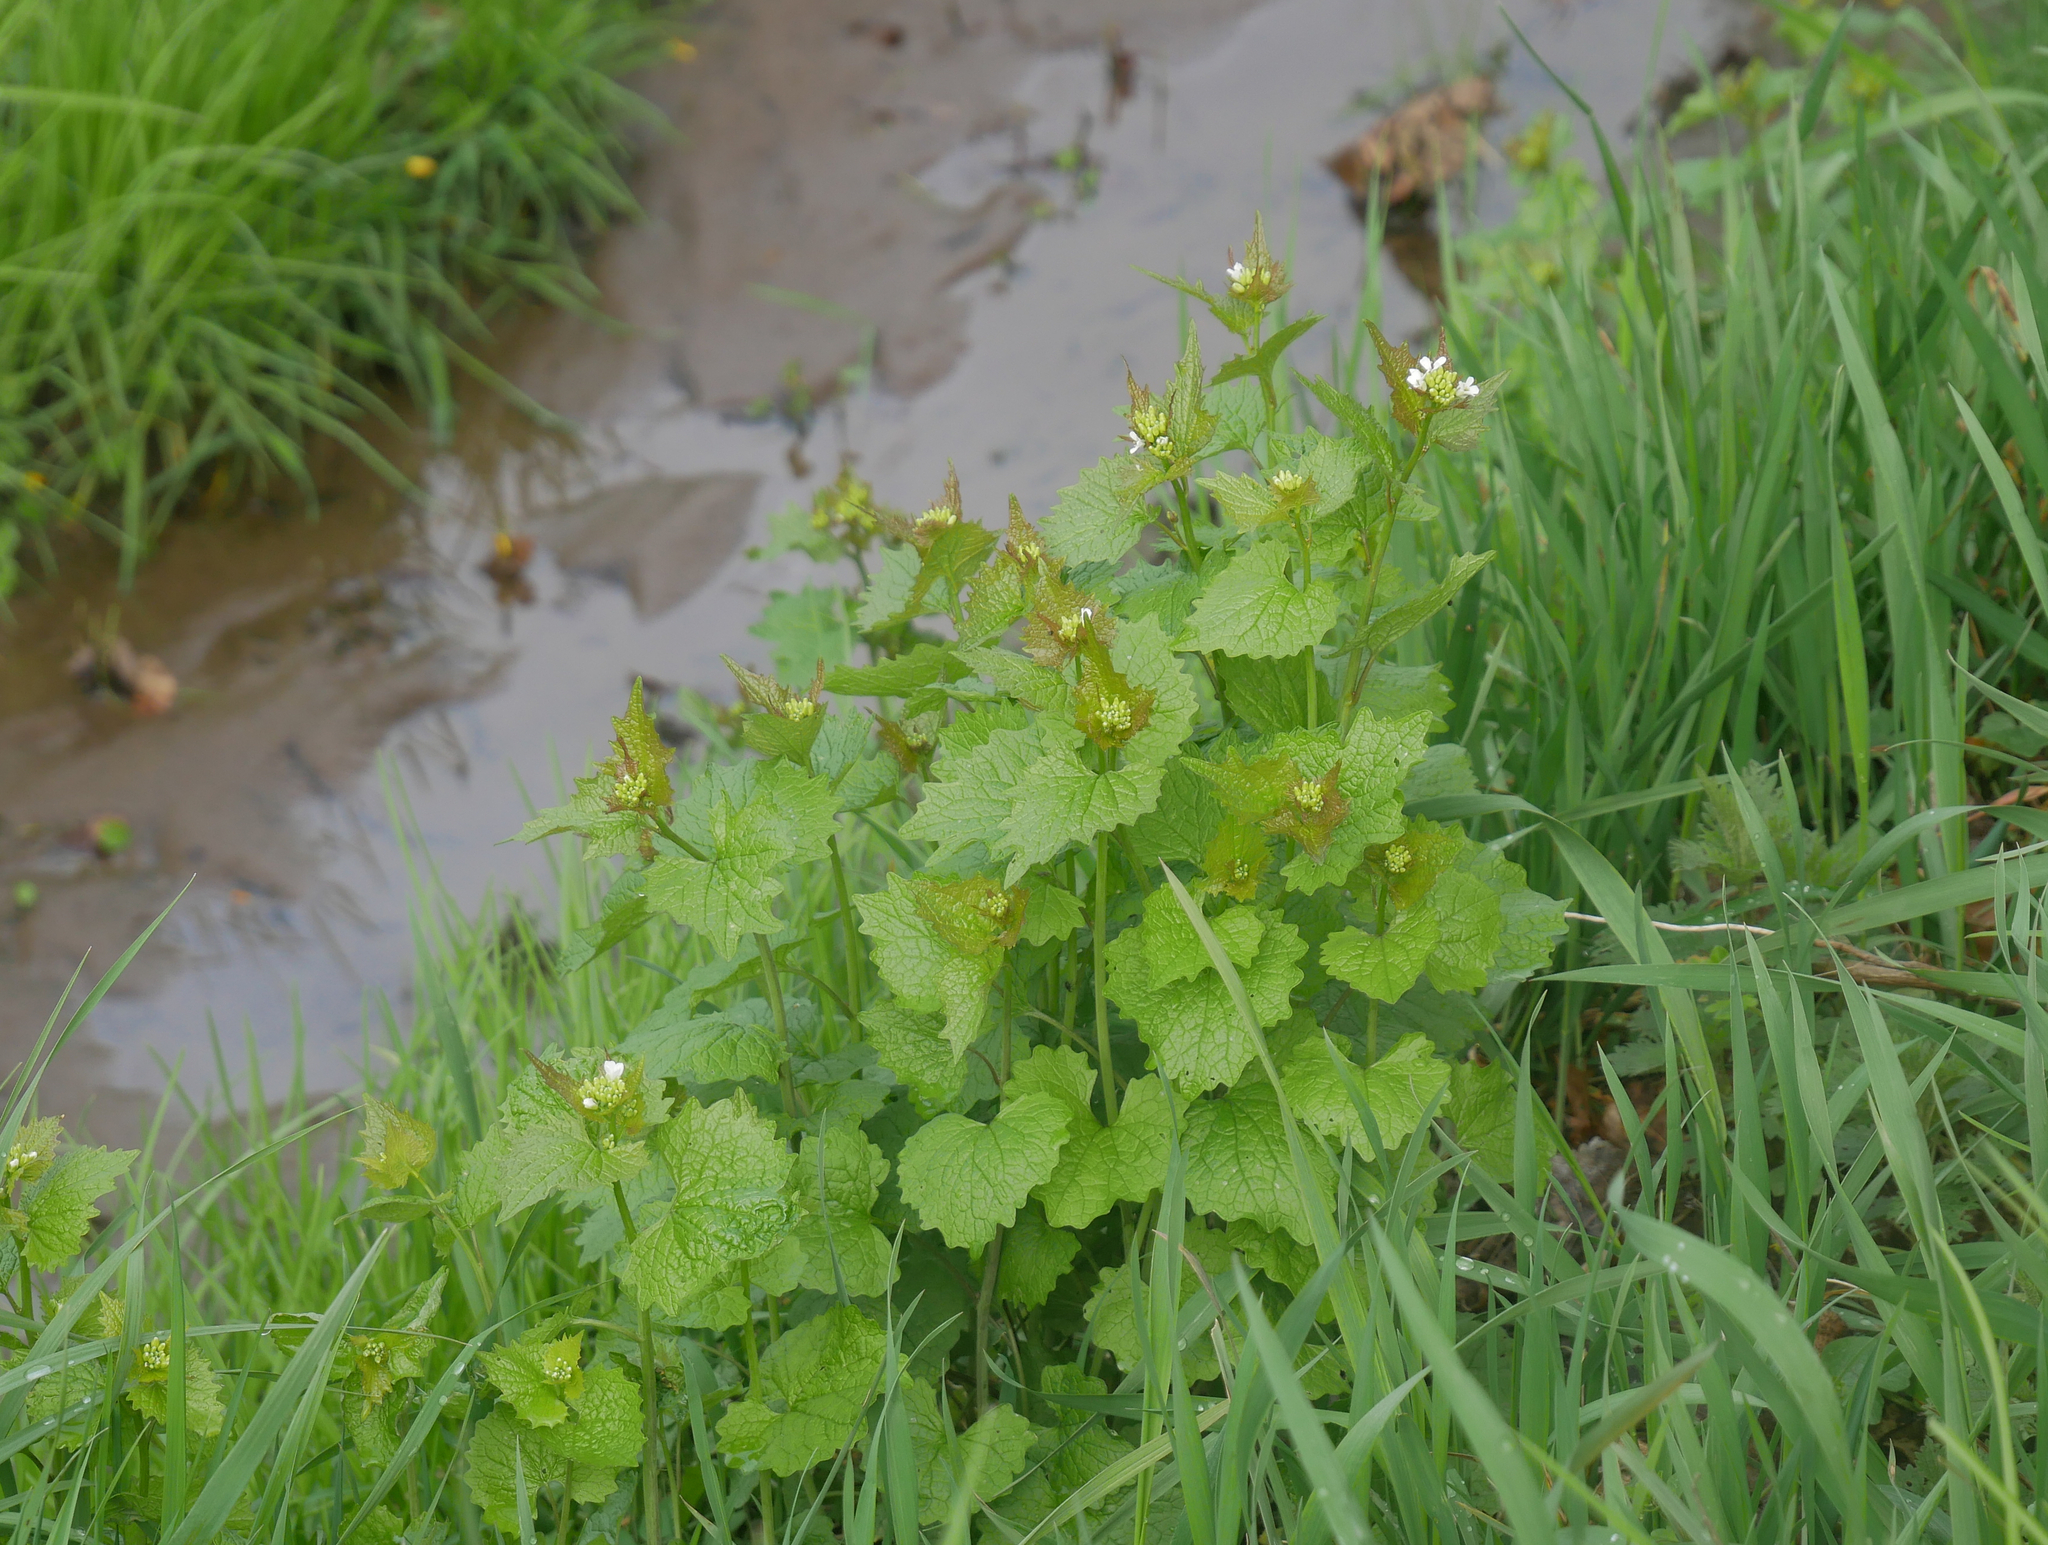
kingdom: Plantae
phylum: Tracheophyta
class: Magnoliopsida
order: Brassicales
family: Brassicaceae
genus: Alliaria
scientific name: Alliaria petiolata
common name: Garlic mustard
